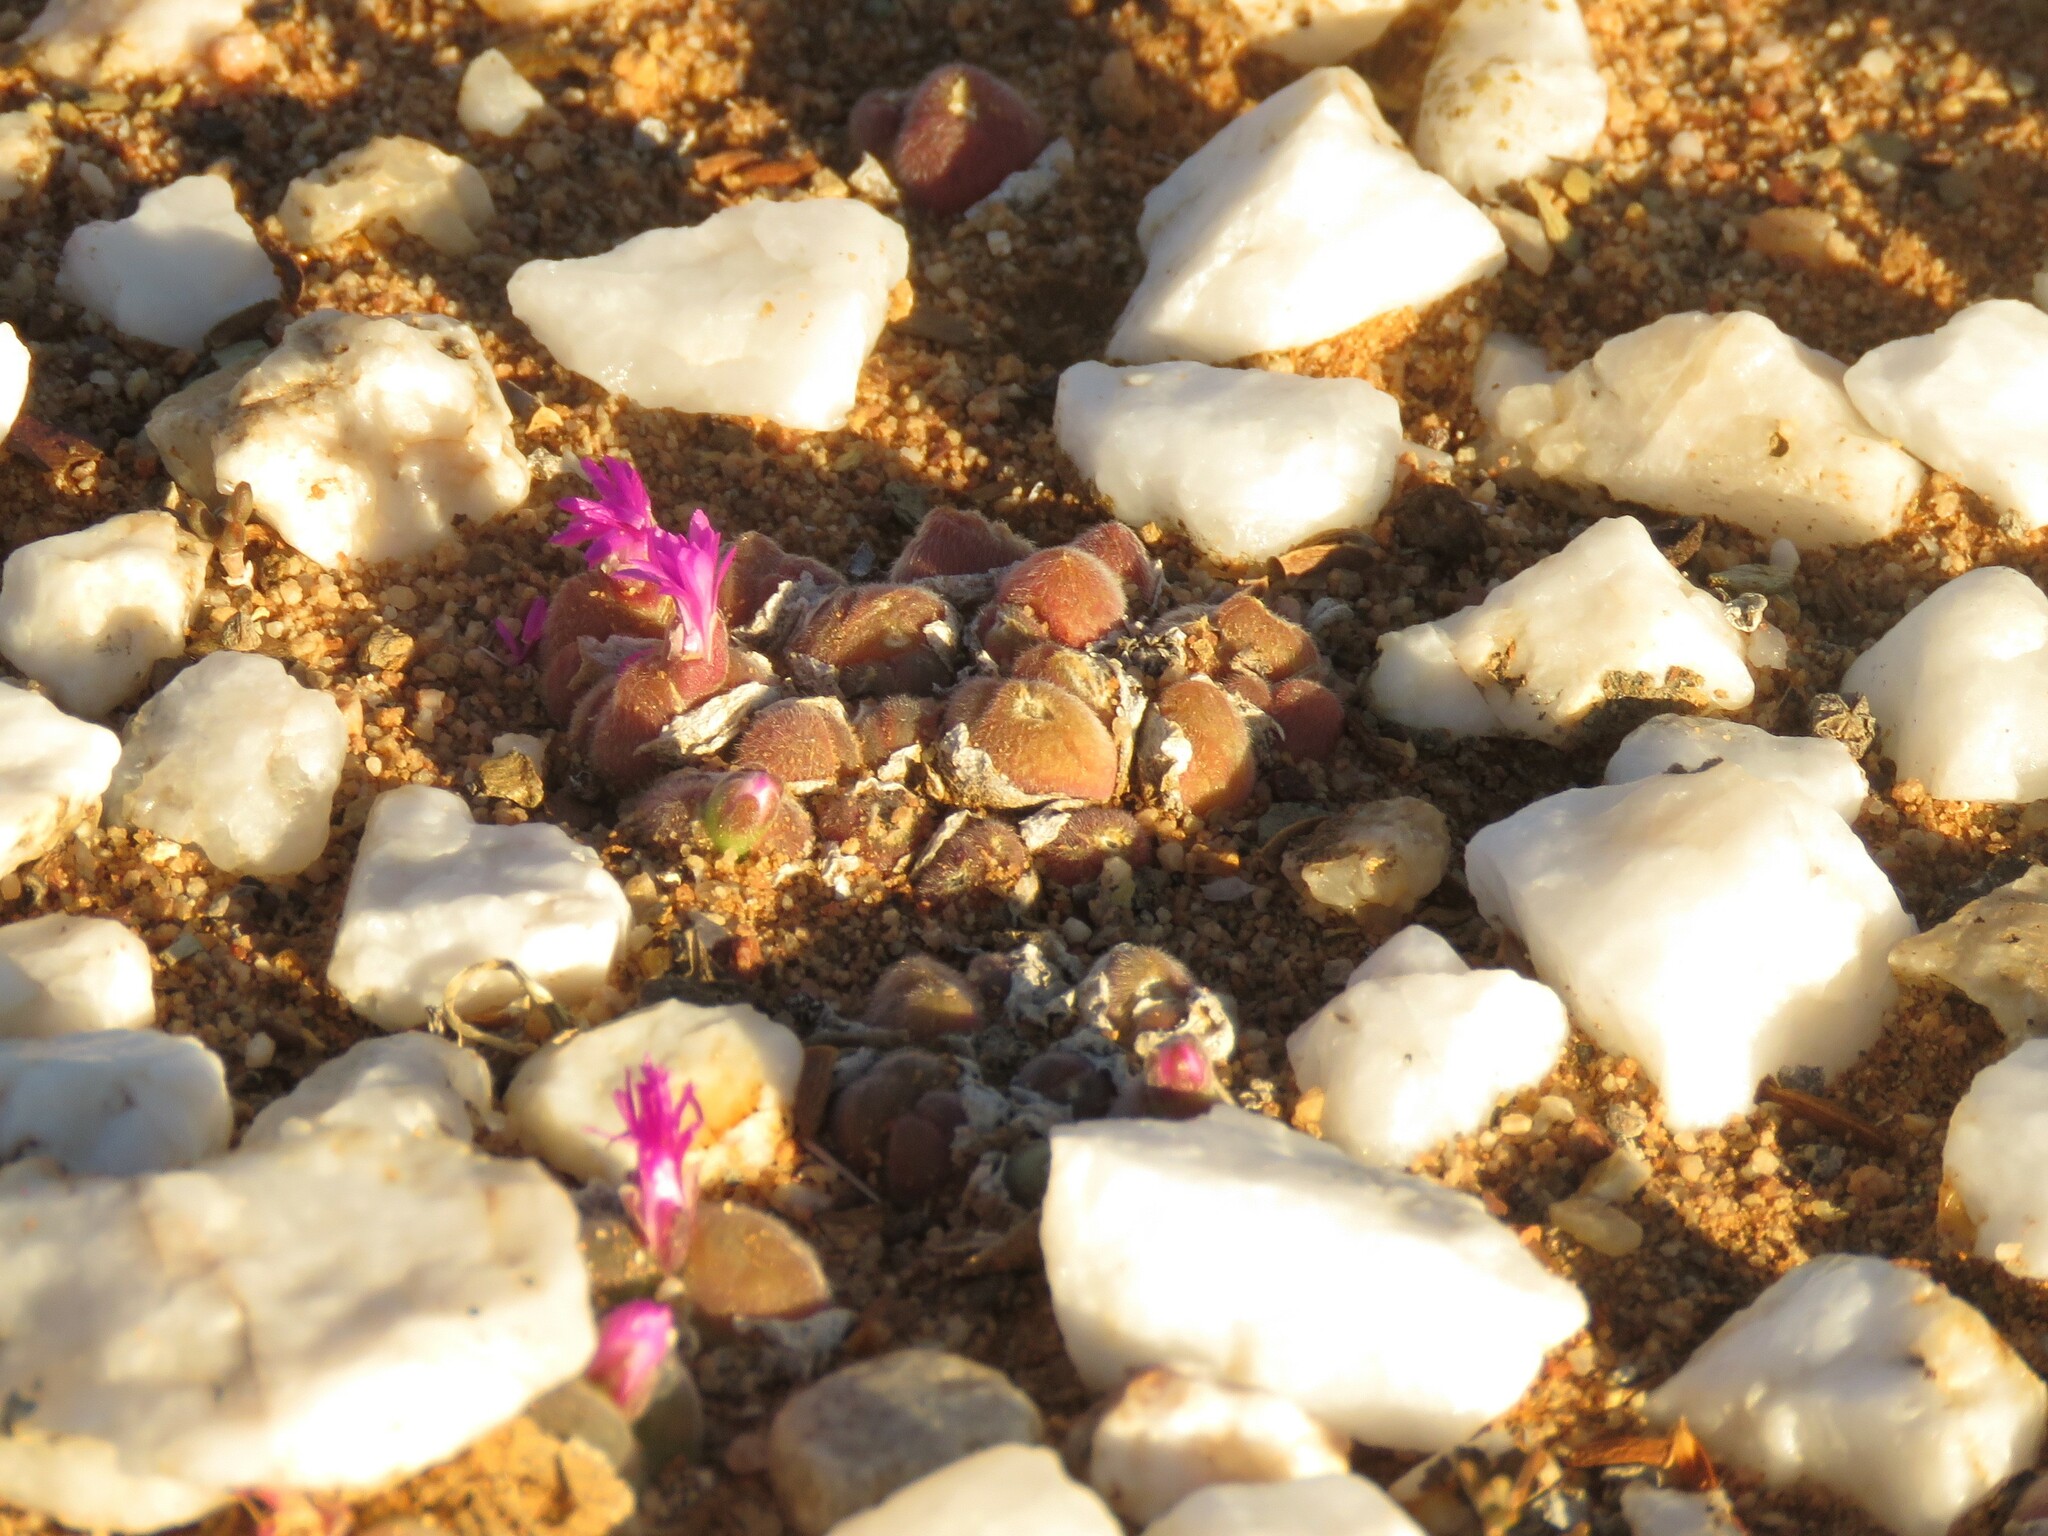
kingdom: Plantae
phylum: Tracheophyta
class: Magnoliopsida
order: Caryophyllales
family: Aizoaceae
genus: Gibbaeum
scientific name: Gibbaeum pilosulum
